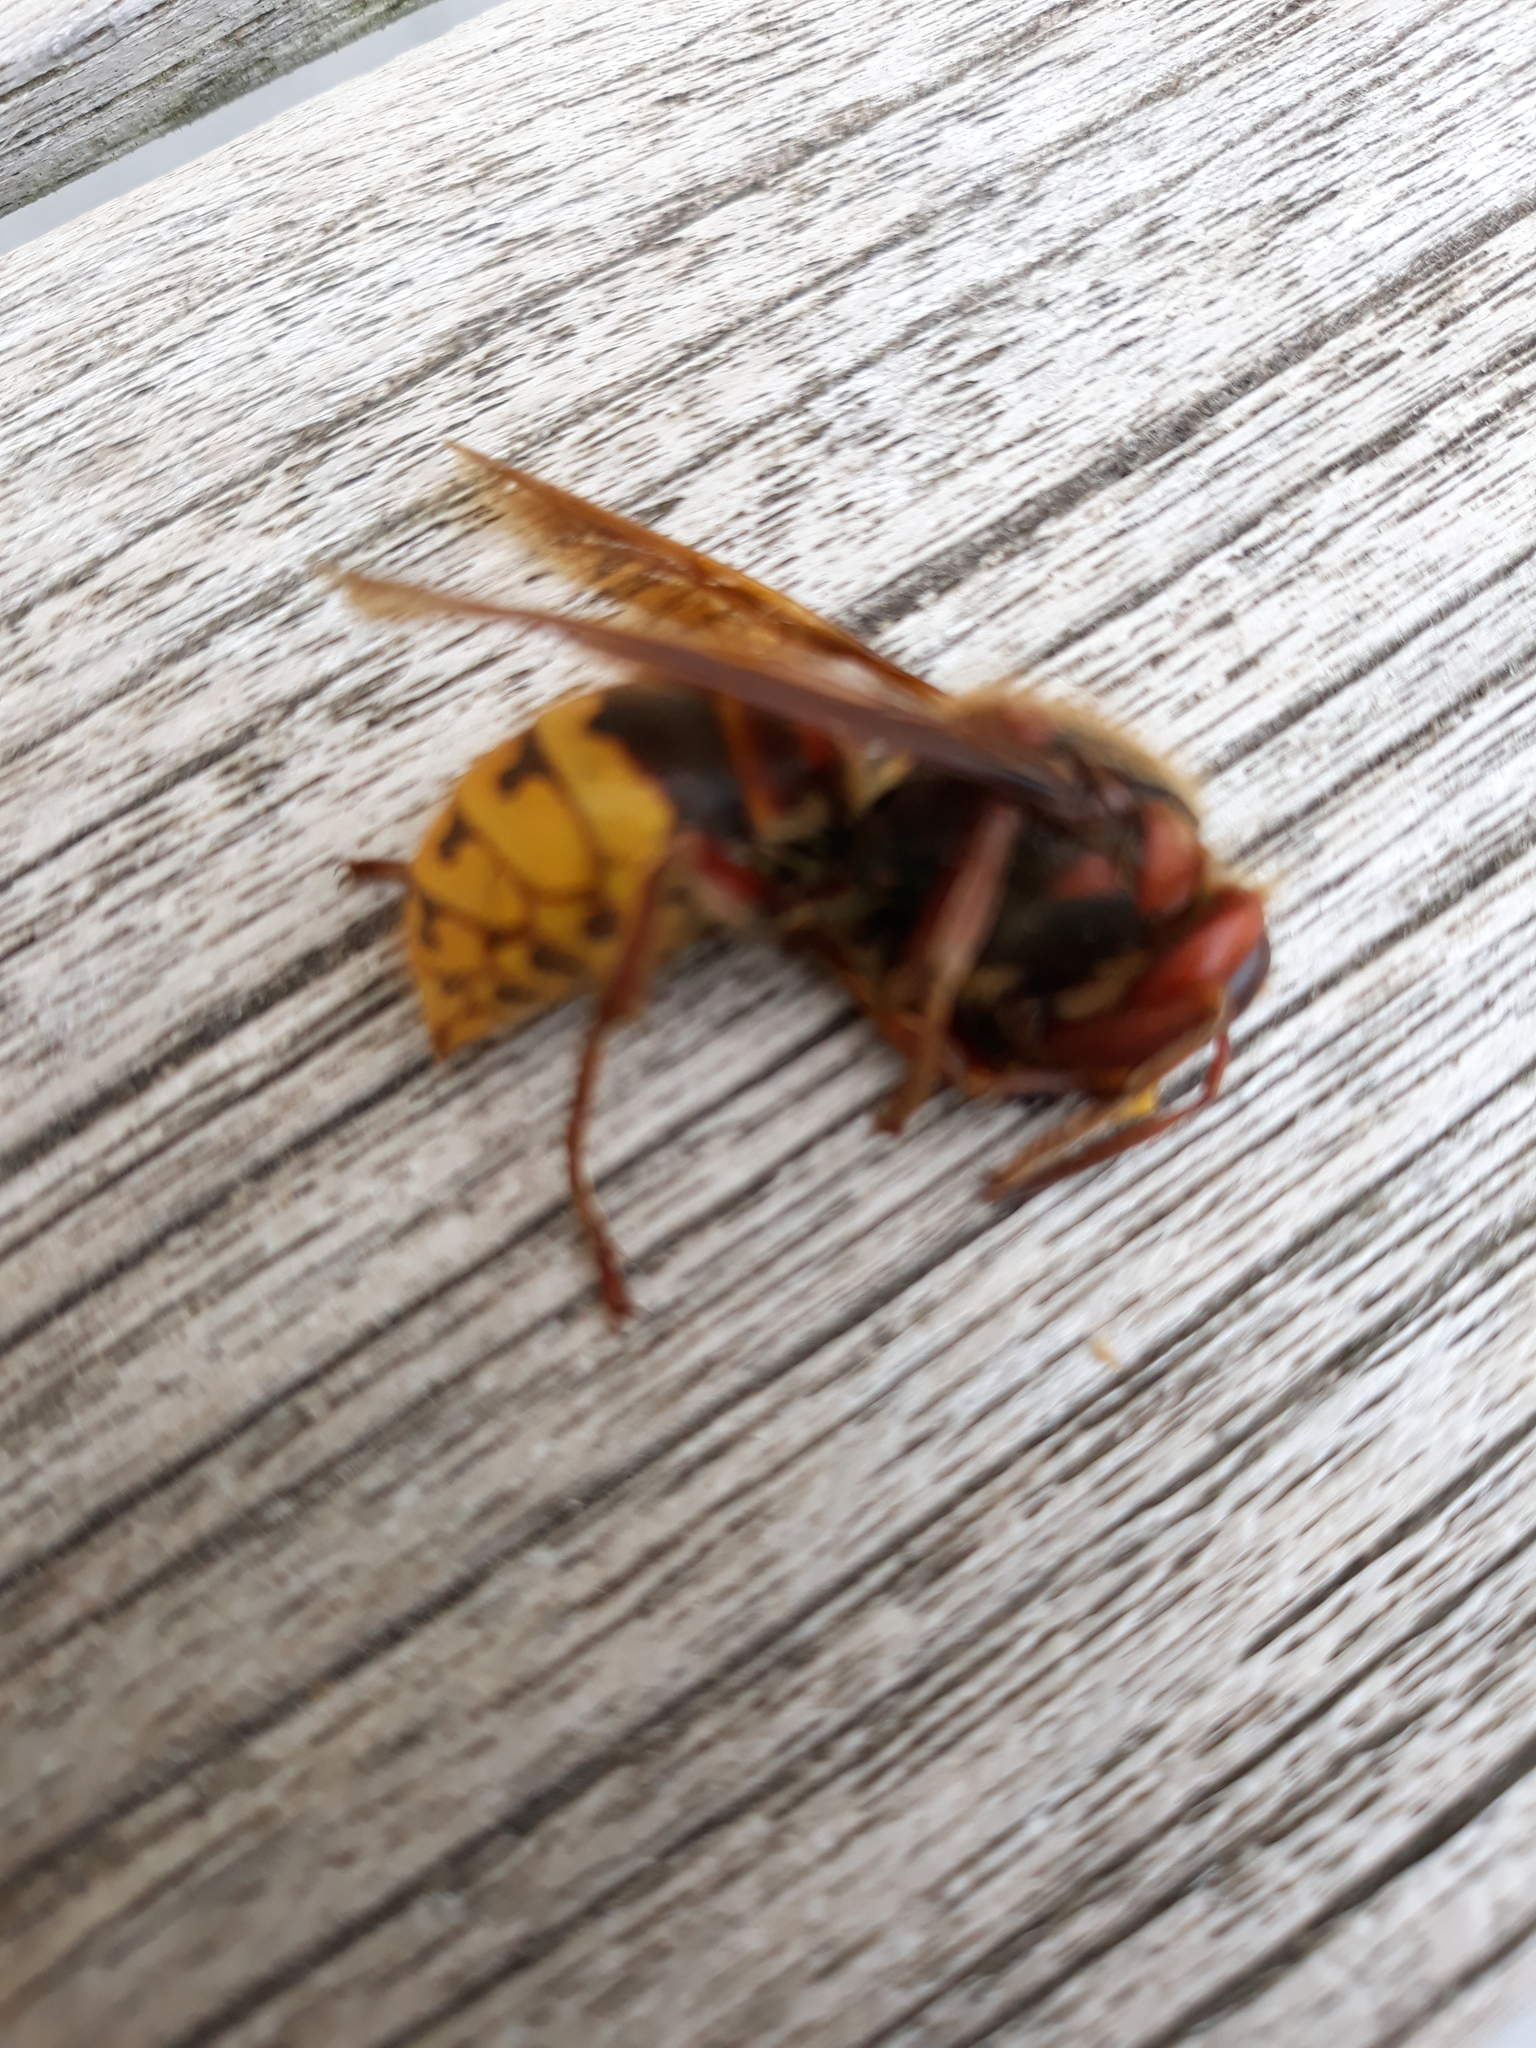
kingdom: Animalia
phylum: Arthropoda
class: Insecta
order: Hymenoptera
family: Vespidae
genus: Vespa
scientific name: Vespa crabro
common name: Hornet
